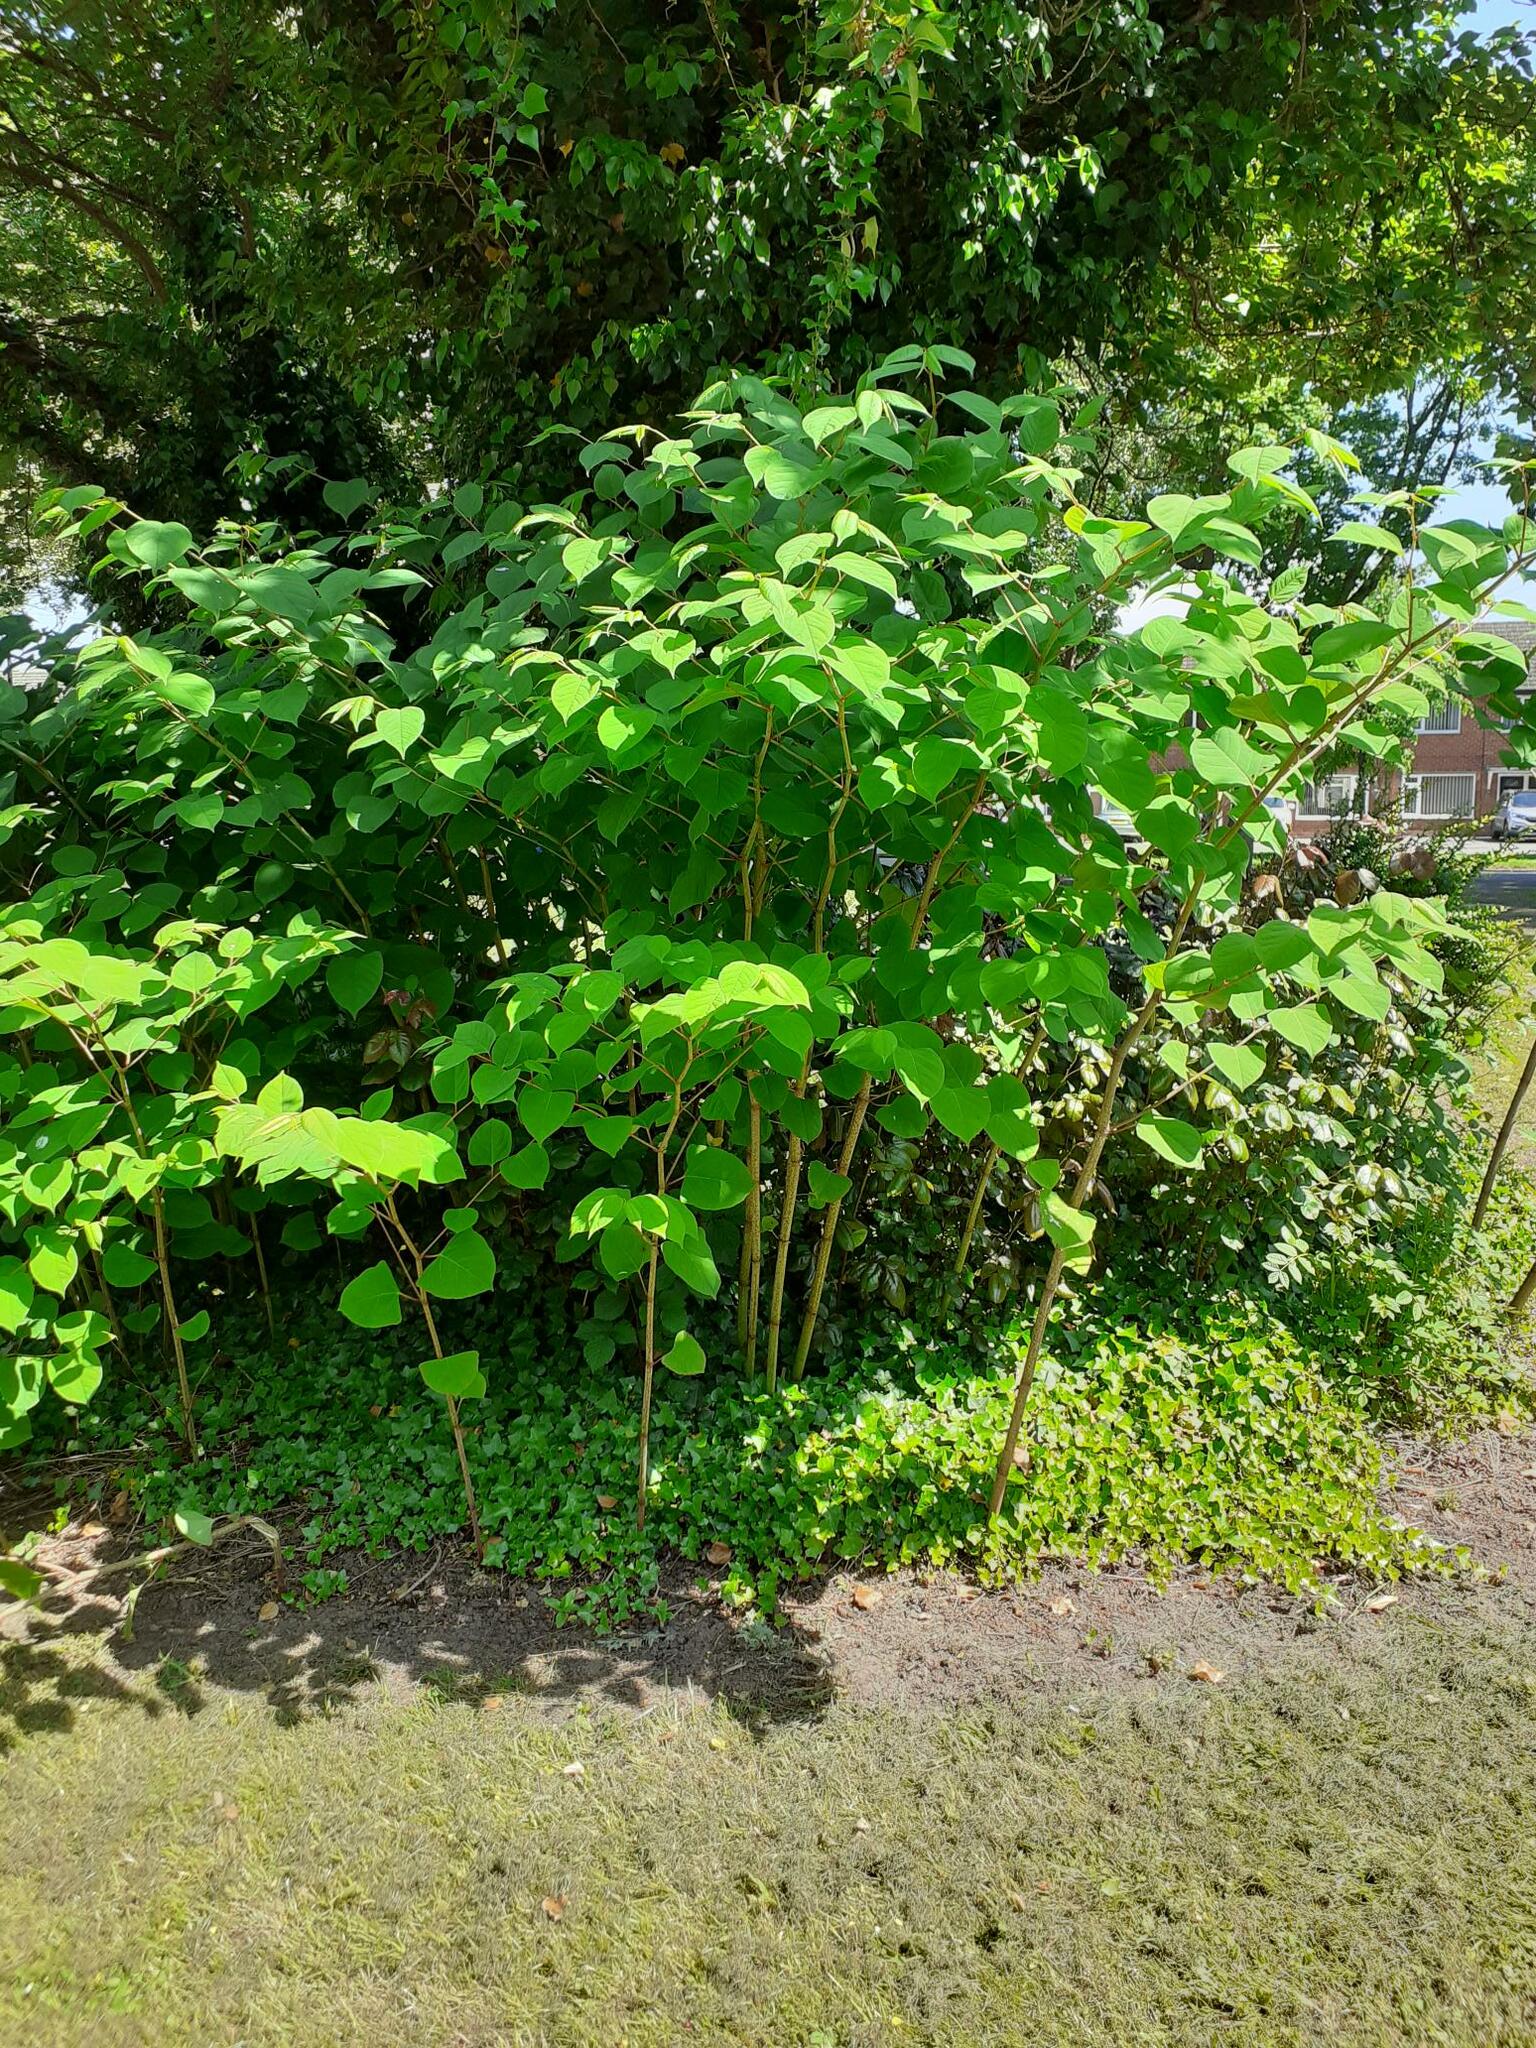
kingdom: Plantae
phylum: Tracheophyta
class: Magnoliopsida
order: Caryophyllales
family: Polygonaceae
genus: Reynoutria
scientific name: Reynoutria japonica
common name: Japanese knotweed
